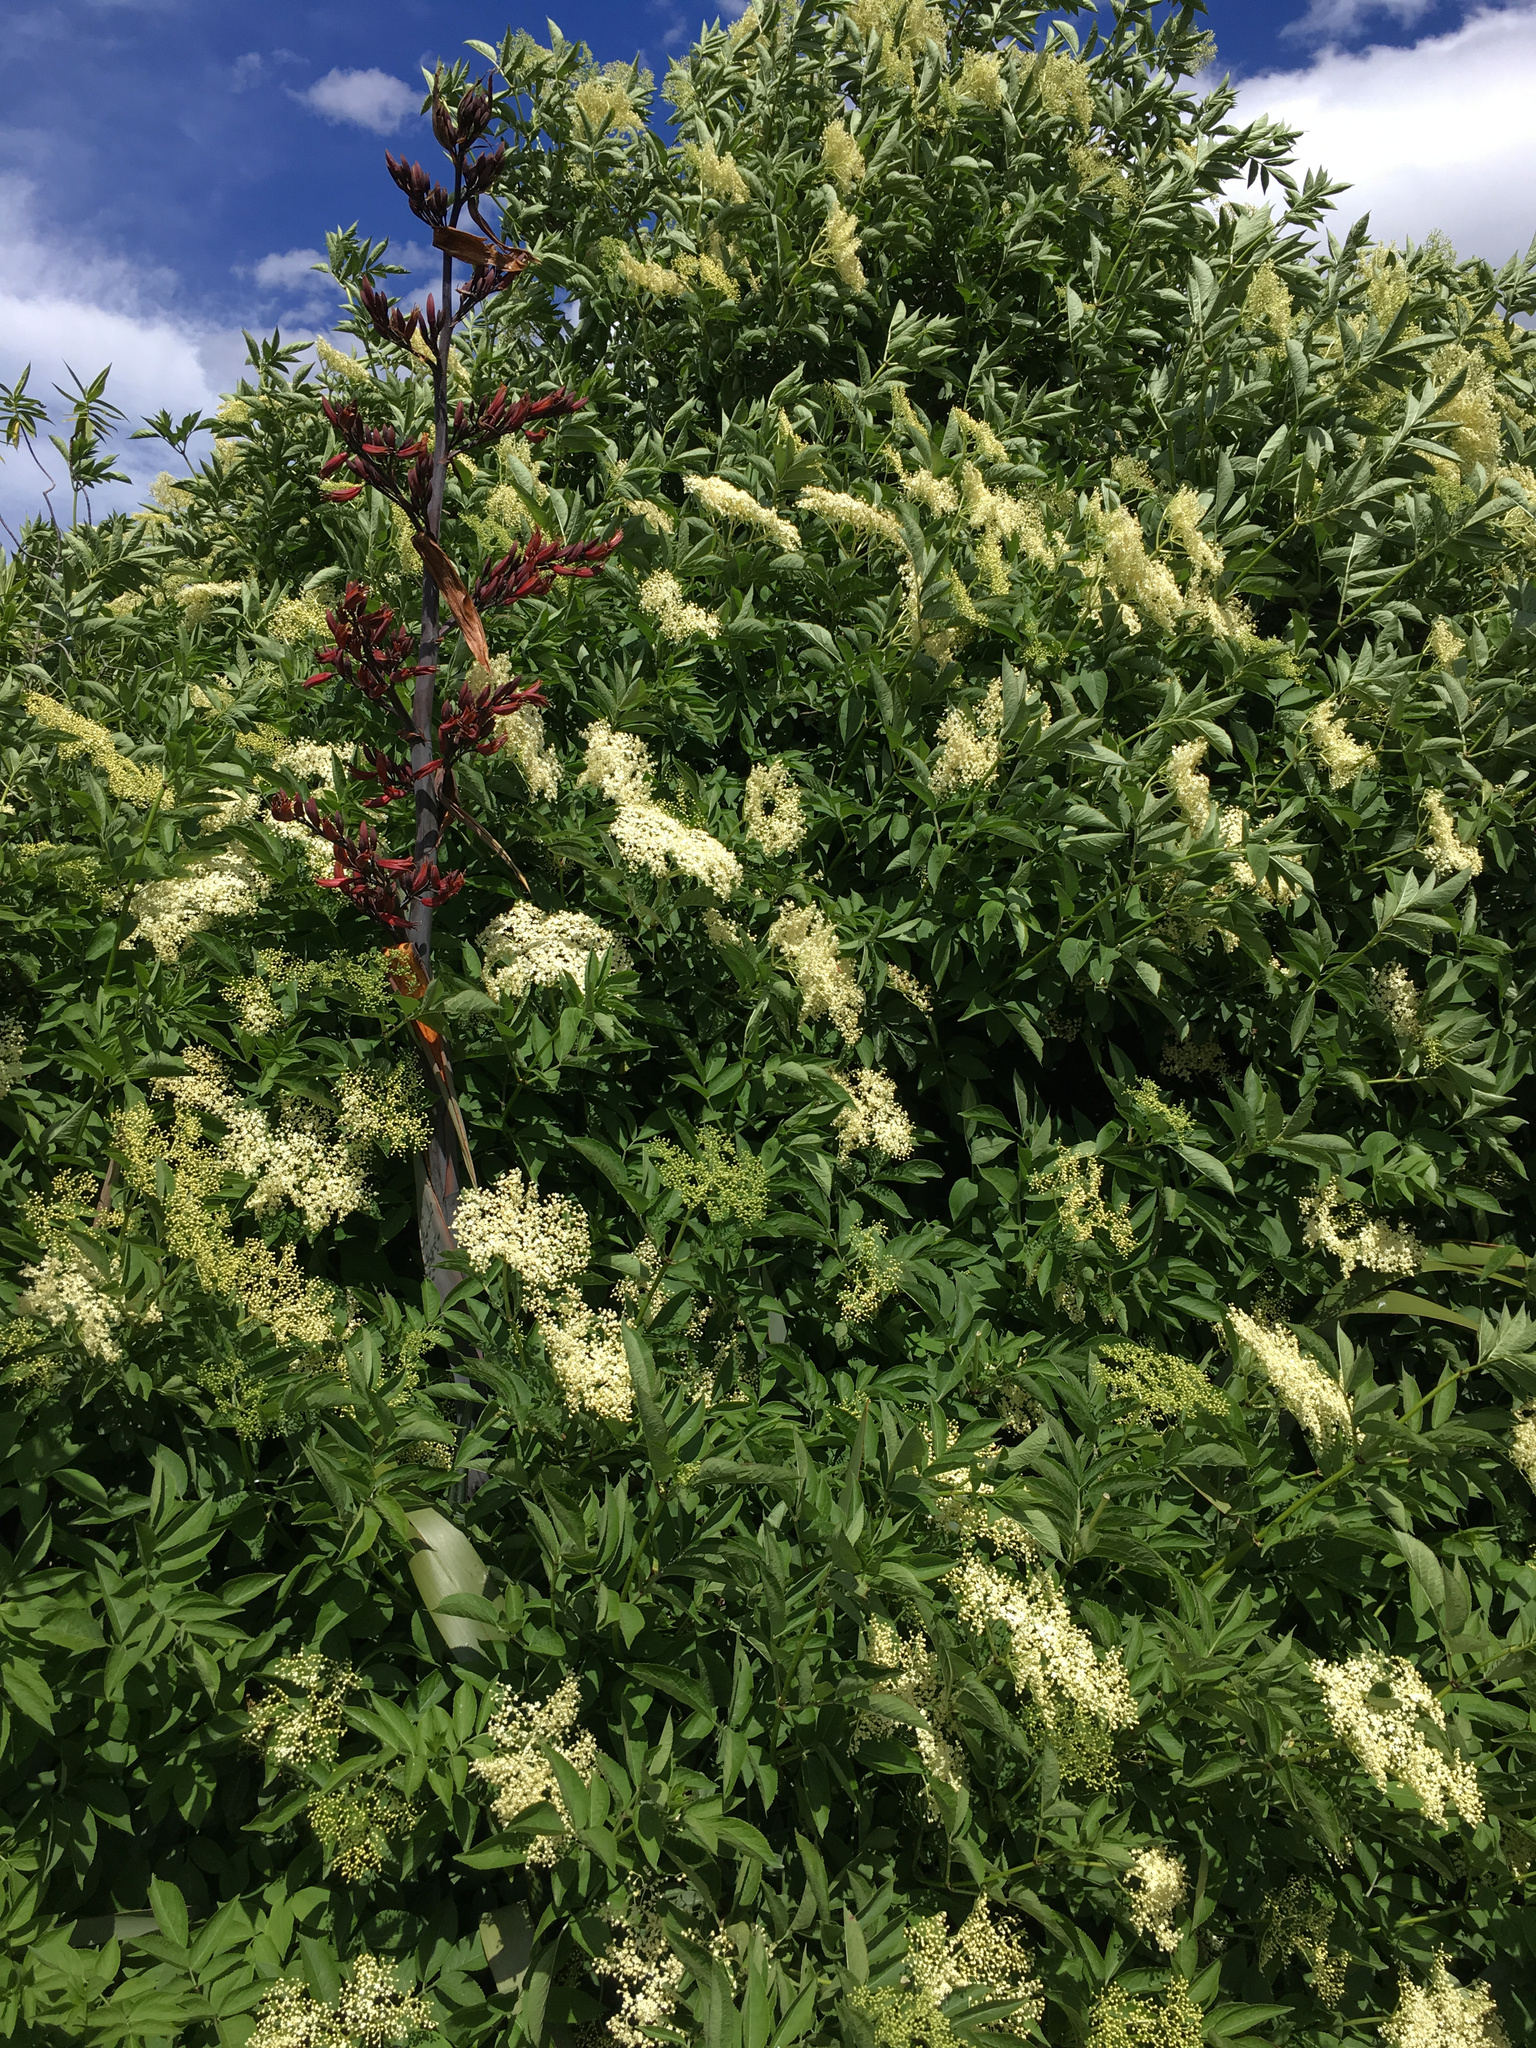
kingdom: Plantae
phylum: Tracheophyta
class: Liliopsida
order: Asparagales
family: Asphodelaceae
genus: Phormium
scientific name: Phormium tenax
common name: New zealand flax
